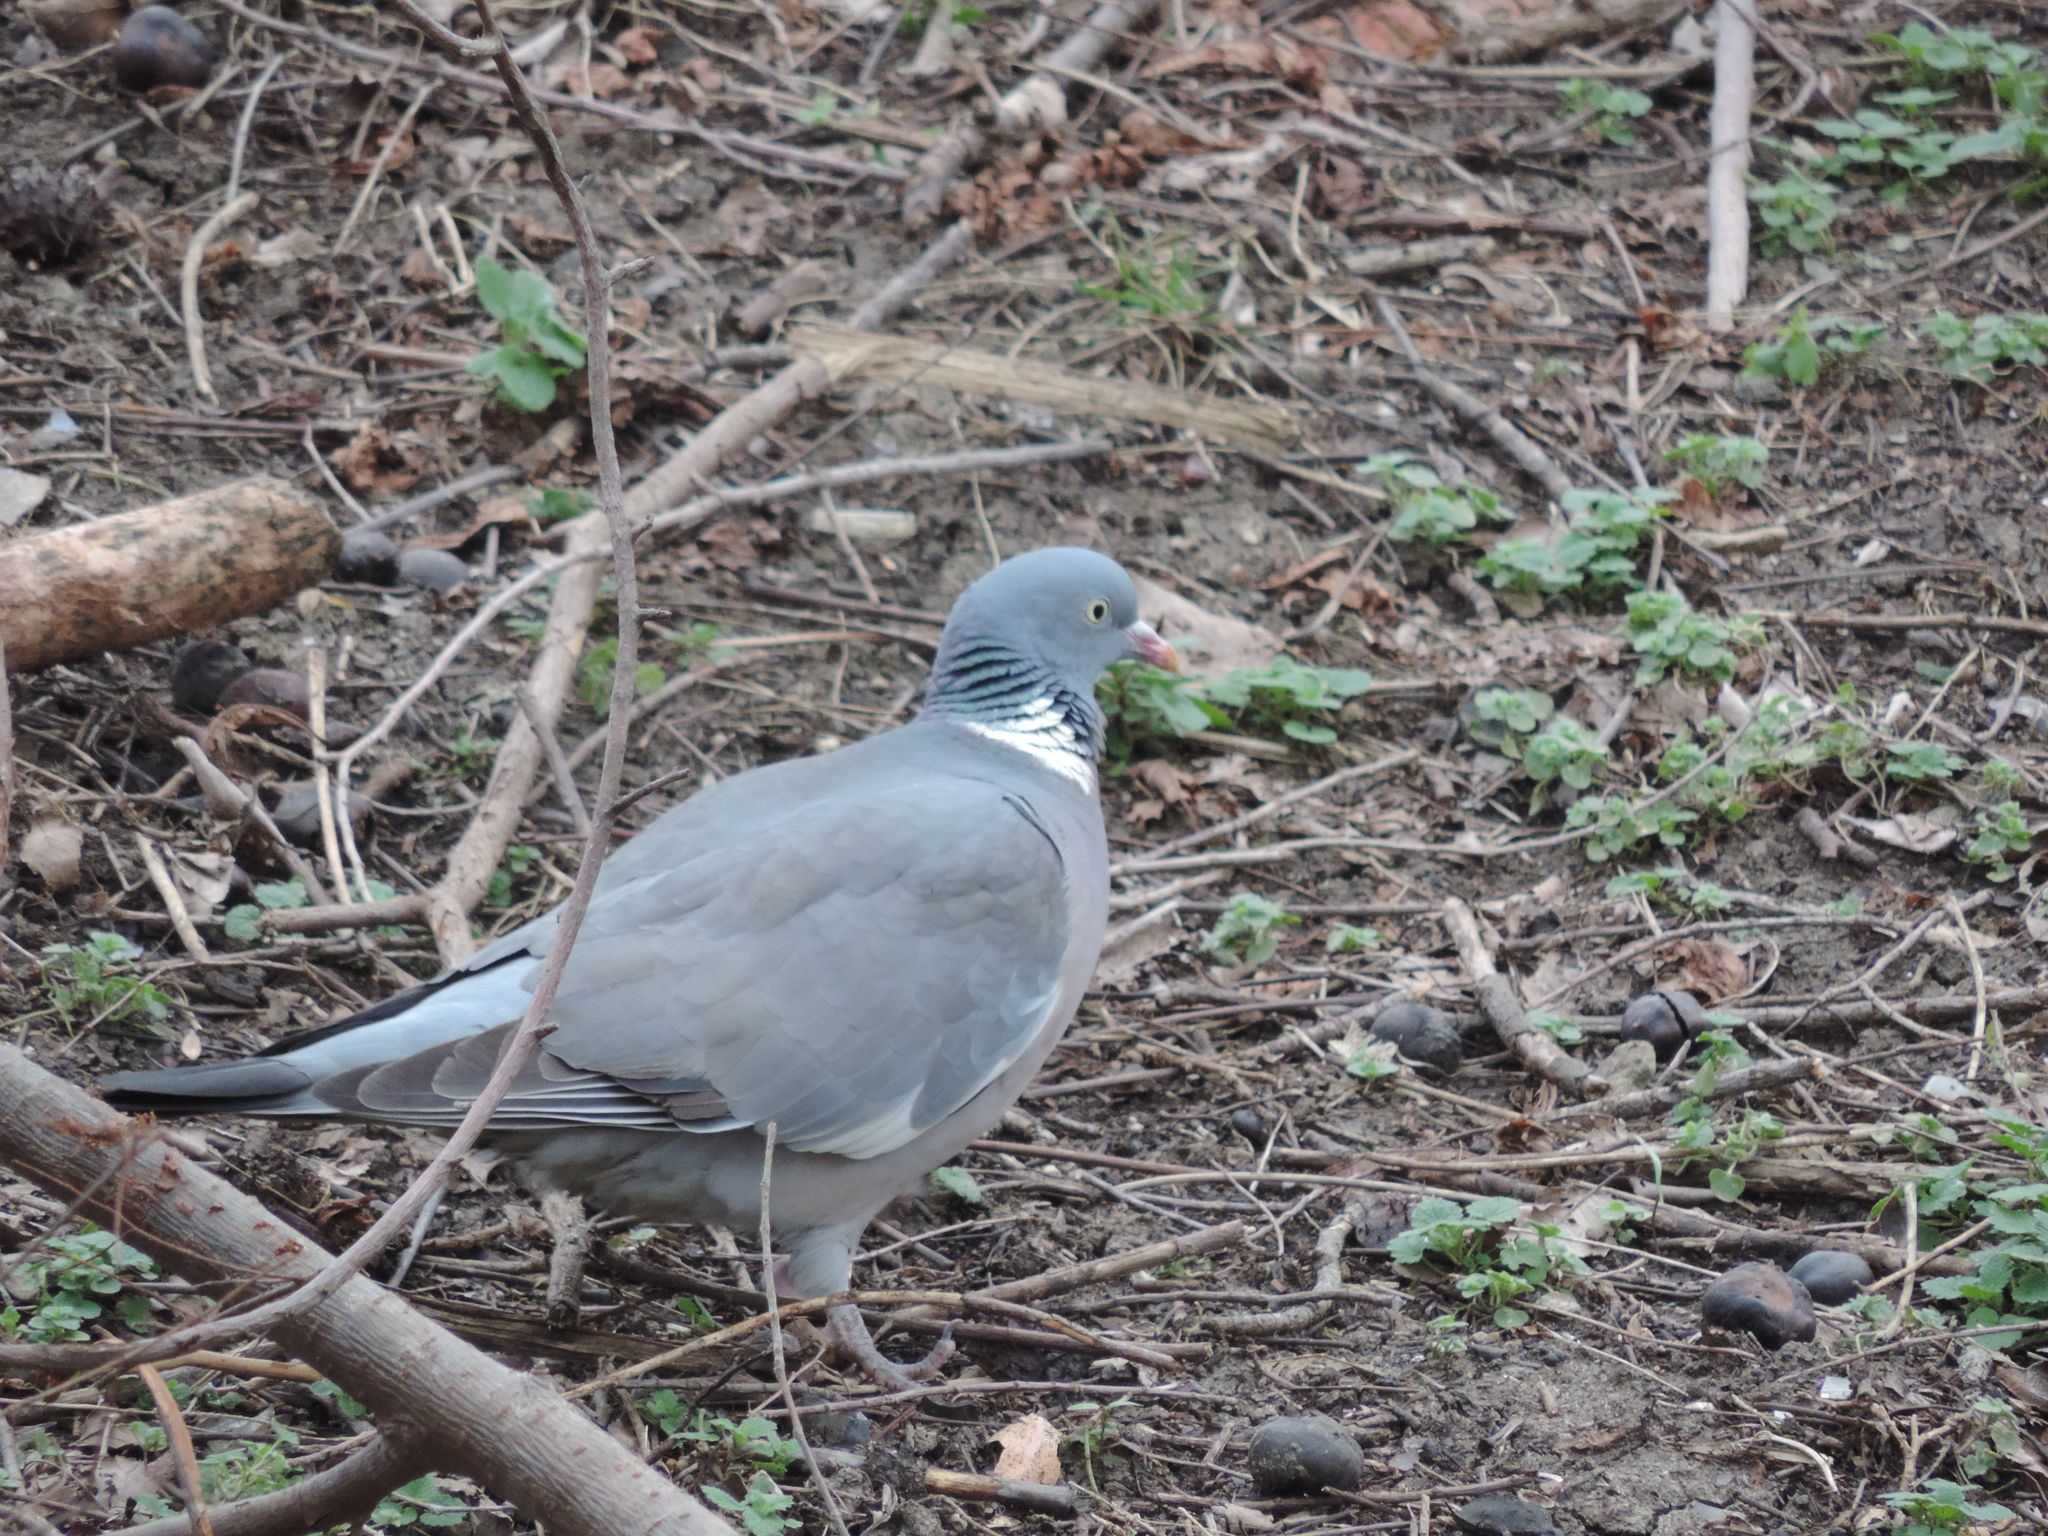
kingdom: Animalia
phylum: Chordata
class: Aves
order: Columbiformes
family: Columbidae
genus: Columba
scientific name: Columba palumbus
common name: Common wood pigeon
